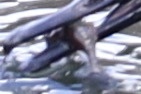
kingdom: Animalia
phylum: Chordata
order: Gasterosteiformes
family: Gasterosteidae
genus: Gasterosteus
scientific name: Gasterosteus aculeatus
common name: Three-spined stickleback
